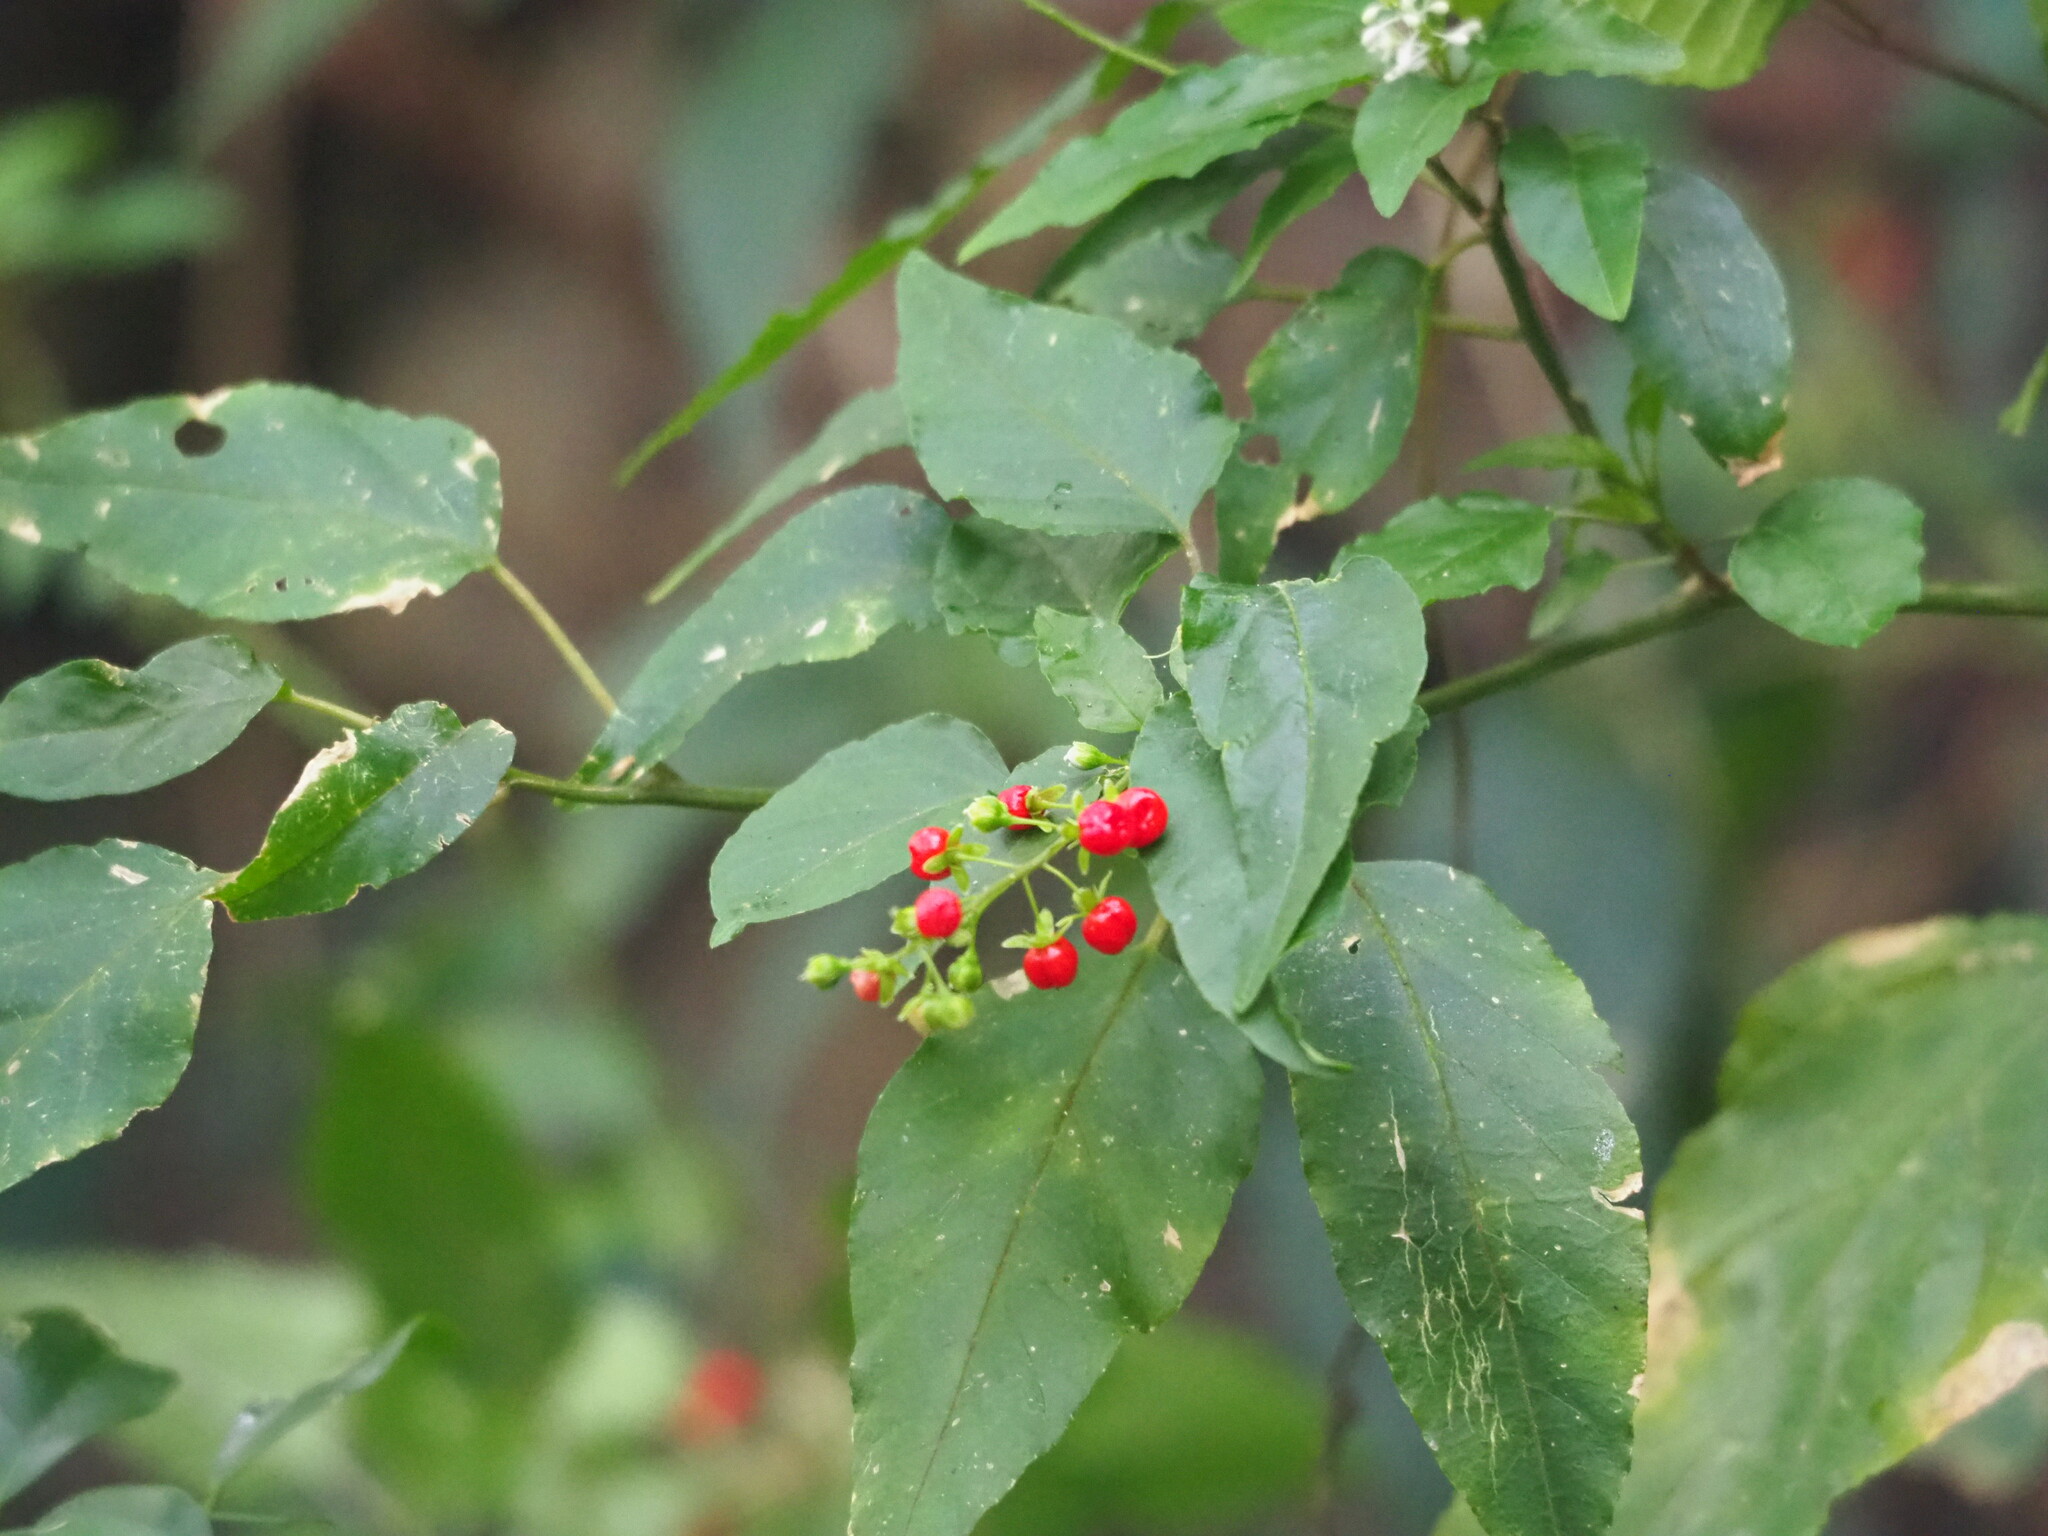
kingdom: Plantae
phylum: Tracheophyta
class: Magnoliopsida
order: Caryophyllales
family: Phytolaccaceae
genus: Rivina
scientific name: Rivina humilis
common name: Rougeplant
